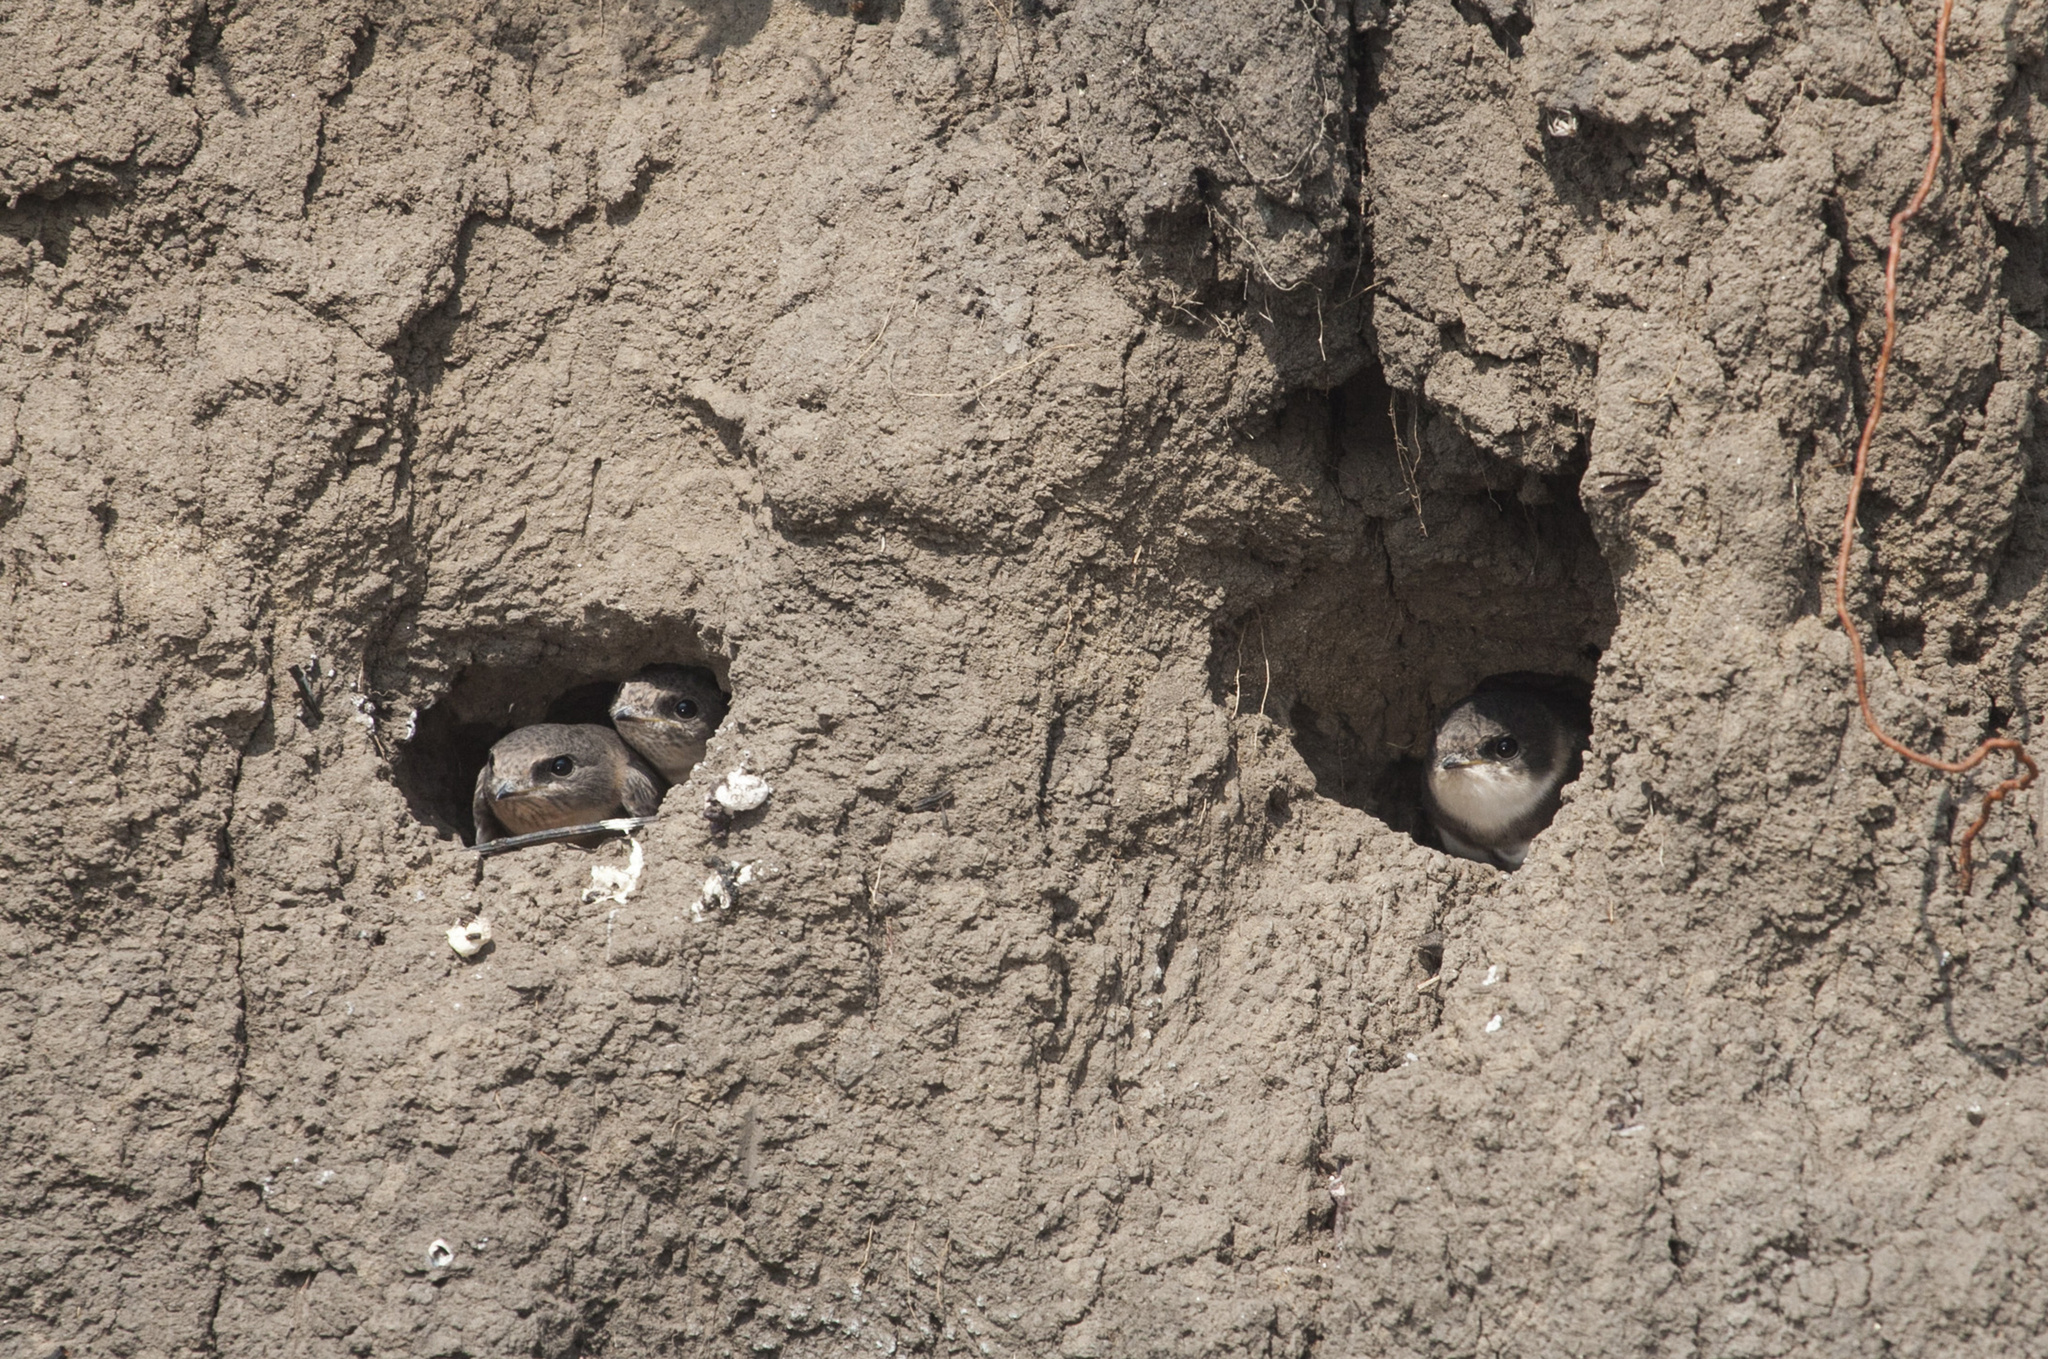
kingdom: Animalia
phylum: Chordata
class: Aves
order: Passeriformes
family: Hirundinidae
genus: Riparia
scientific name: Riparia riparia
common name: Sand martin
